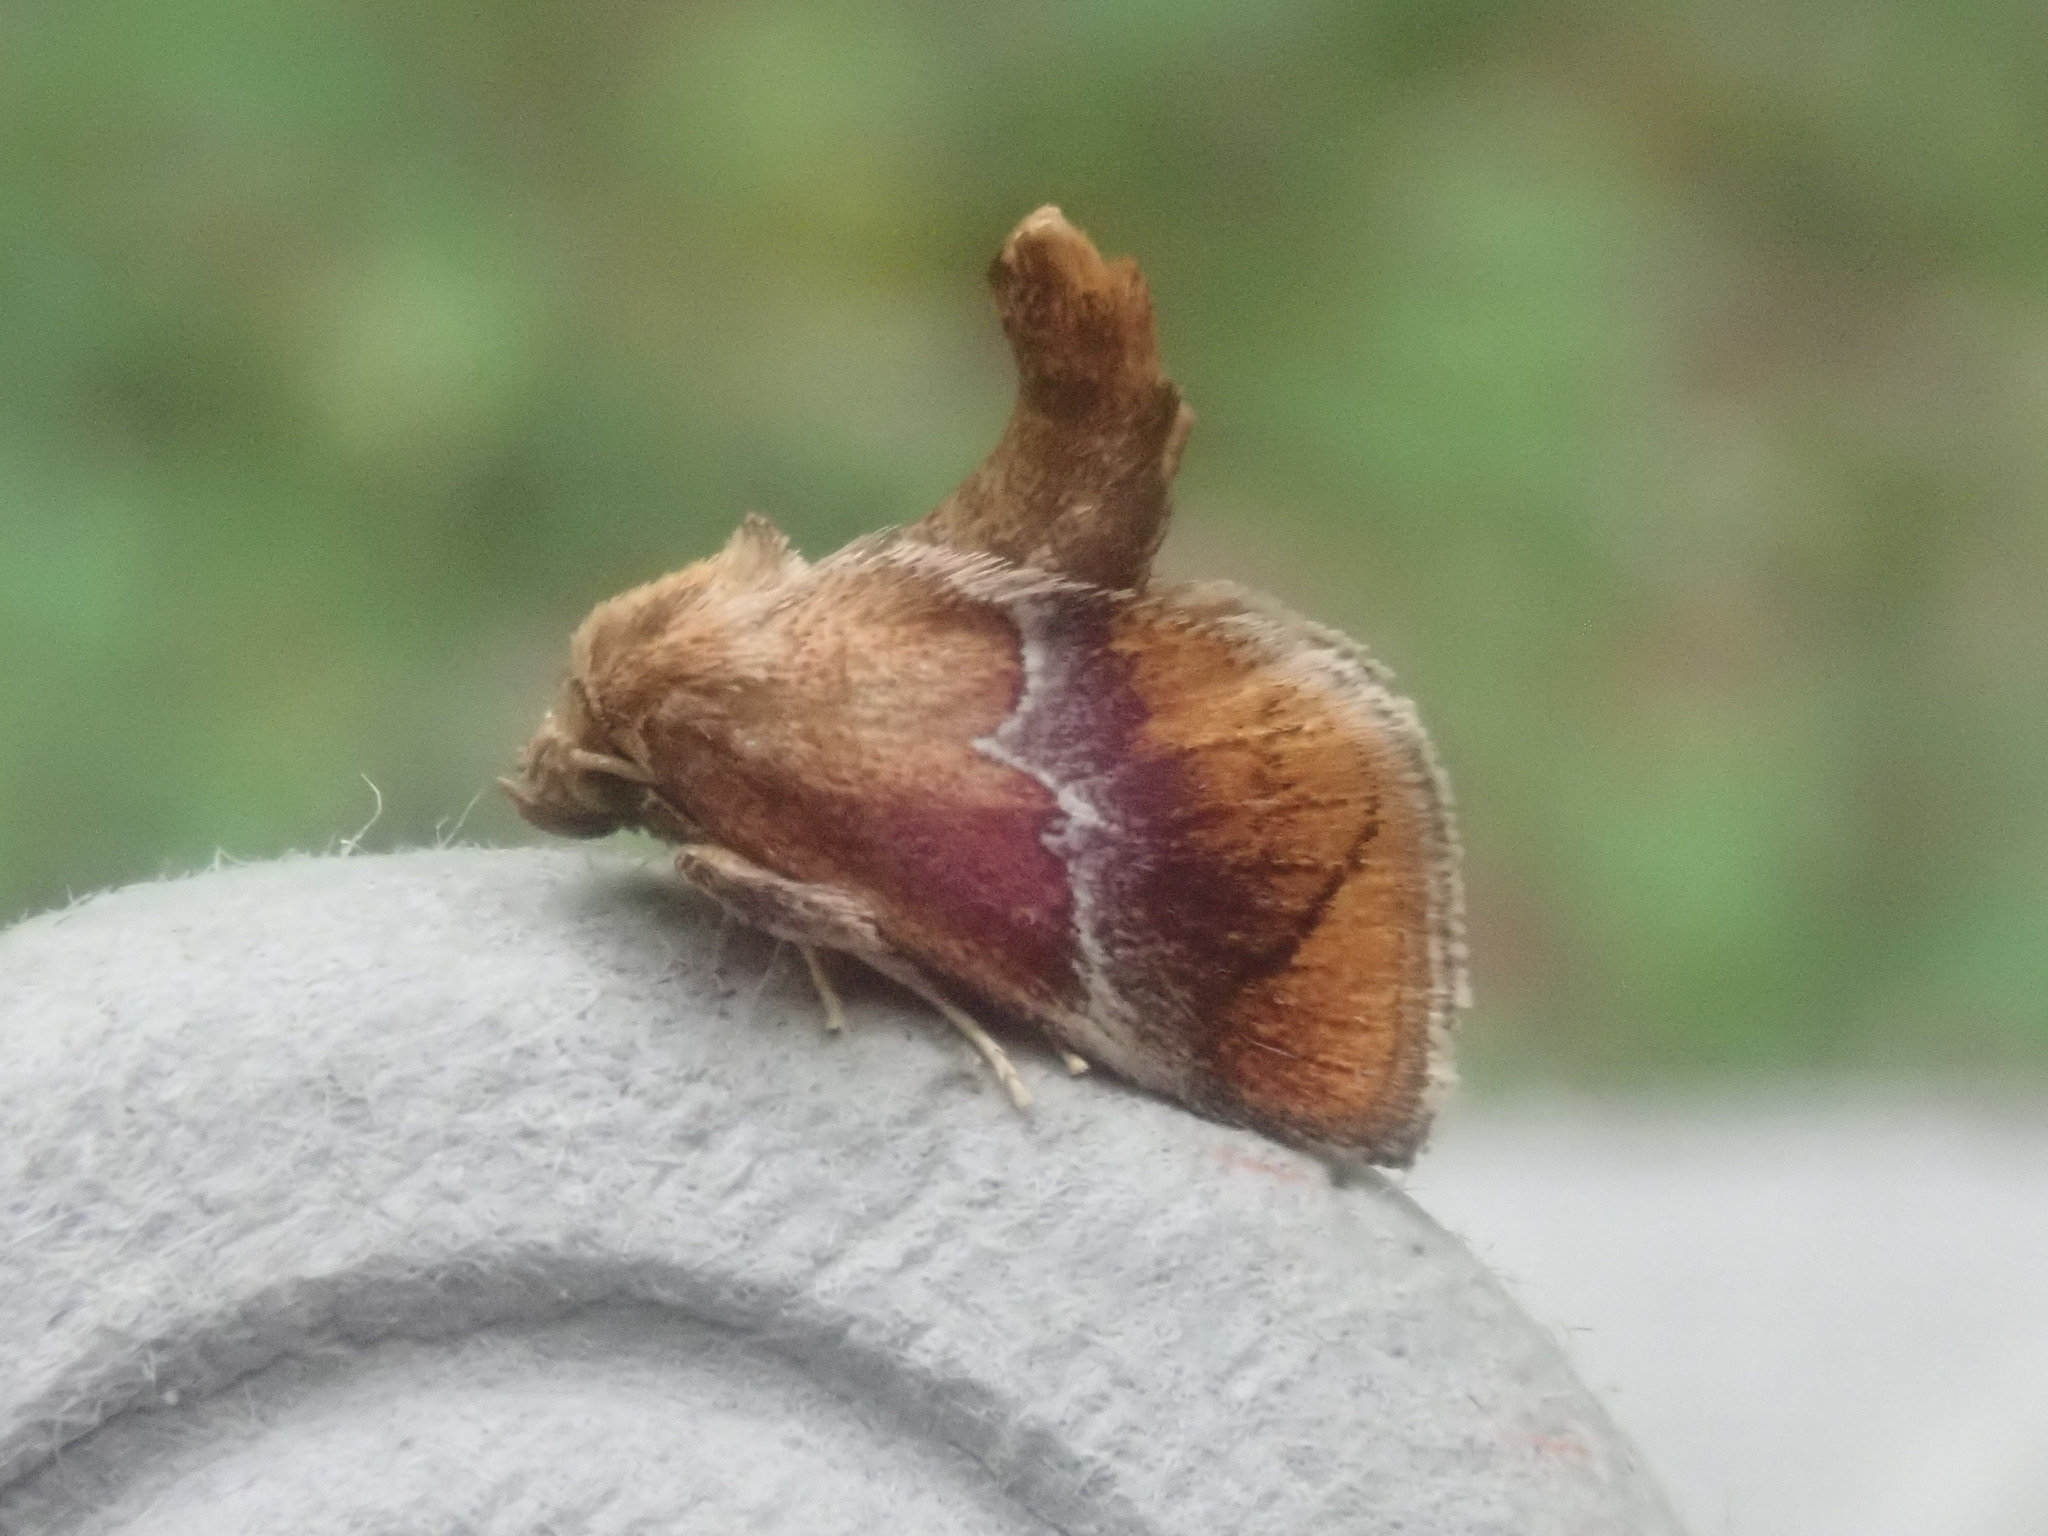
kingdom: Animalia
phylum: Arthropoda
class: Insecta
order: Lepidoptera
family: Limacodidae
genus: Lithacodes
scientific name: Lithacodes fasciola
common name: Yellow-shouldered slug moth
